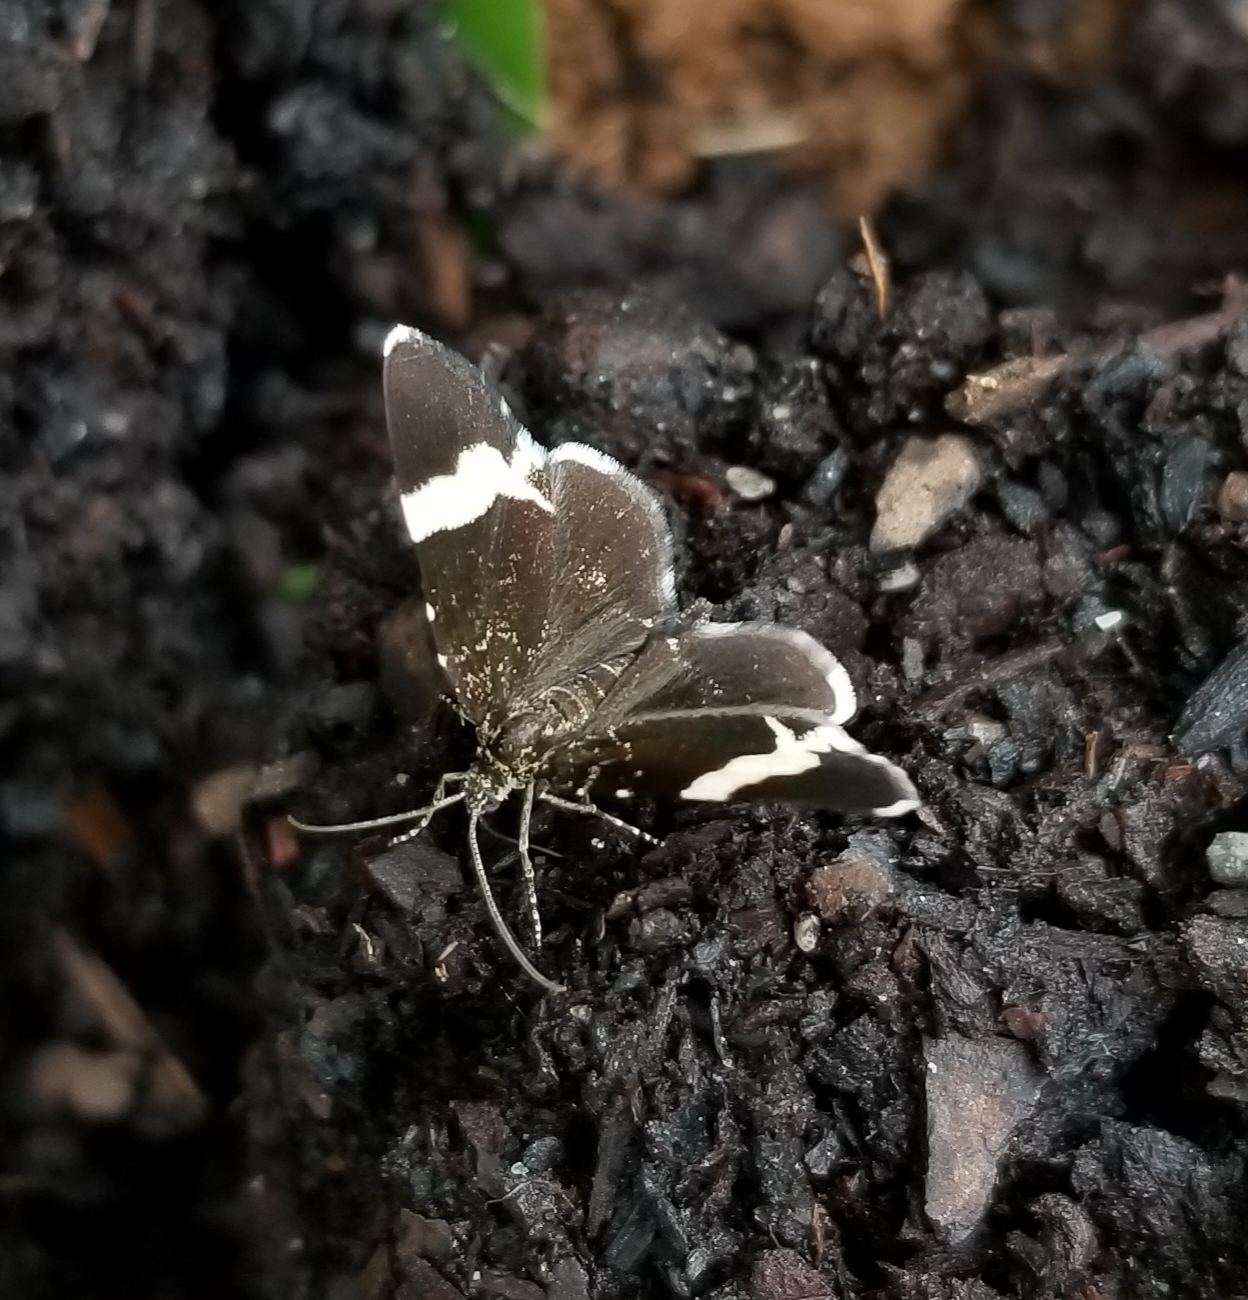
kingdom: Animalia
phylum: Arthropoda
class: Insecta
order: Lepidoptera
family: Geometridae
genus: Trichodezia
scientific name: Trichodezia albovittata
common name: White striped black
